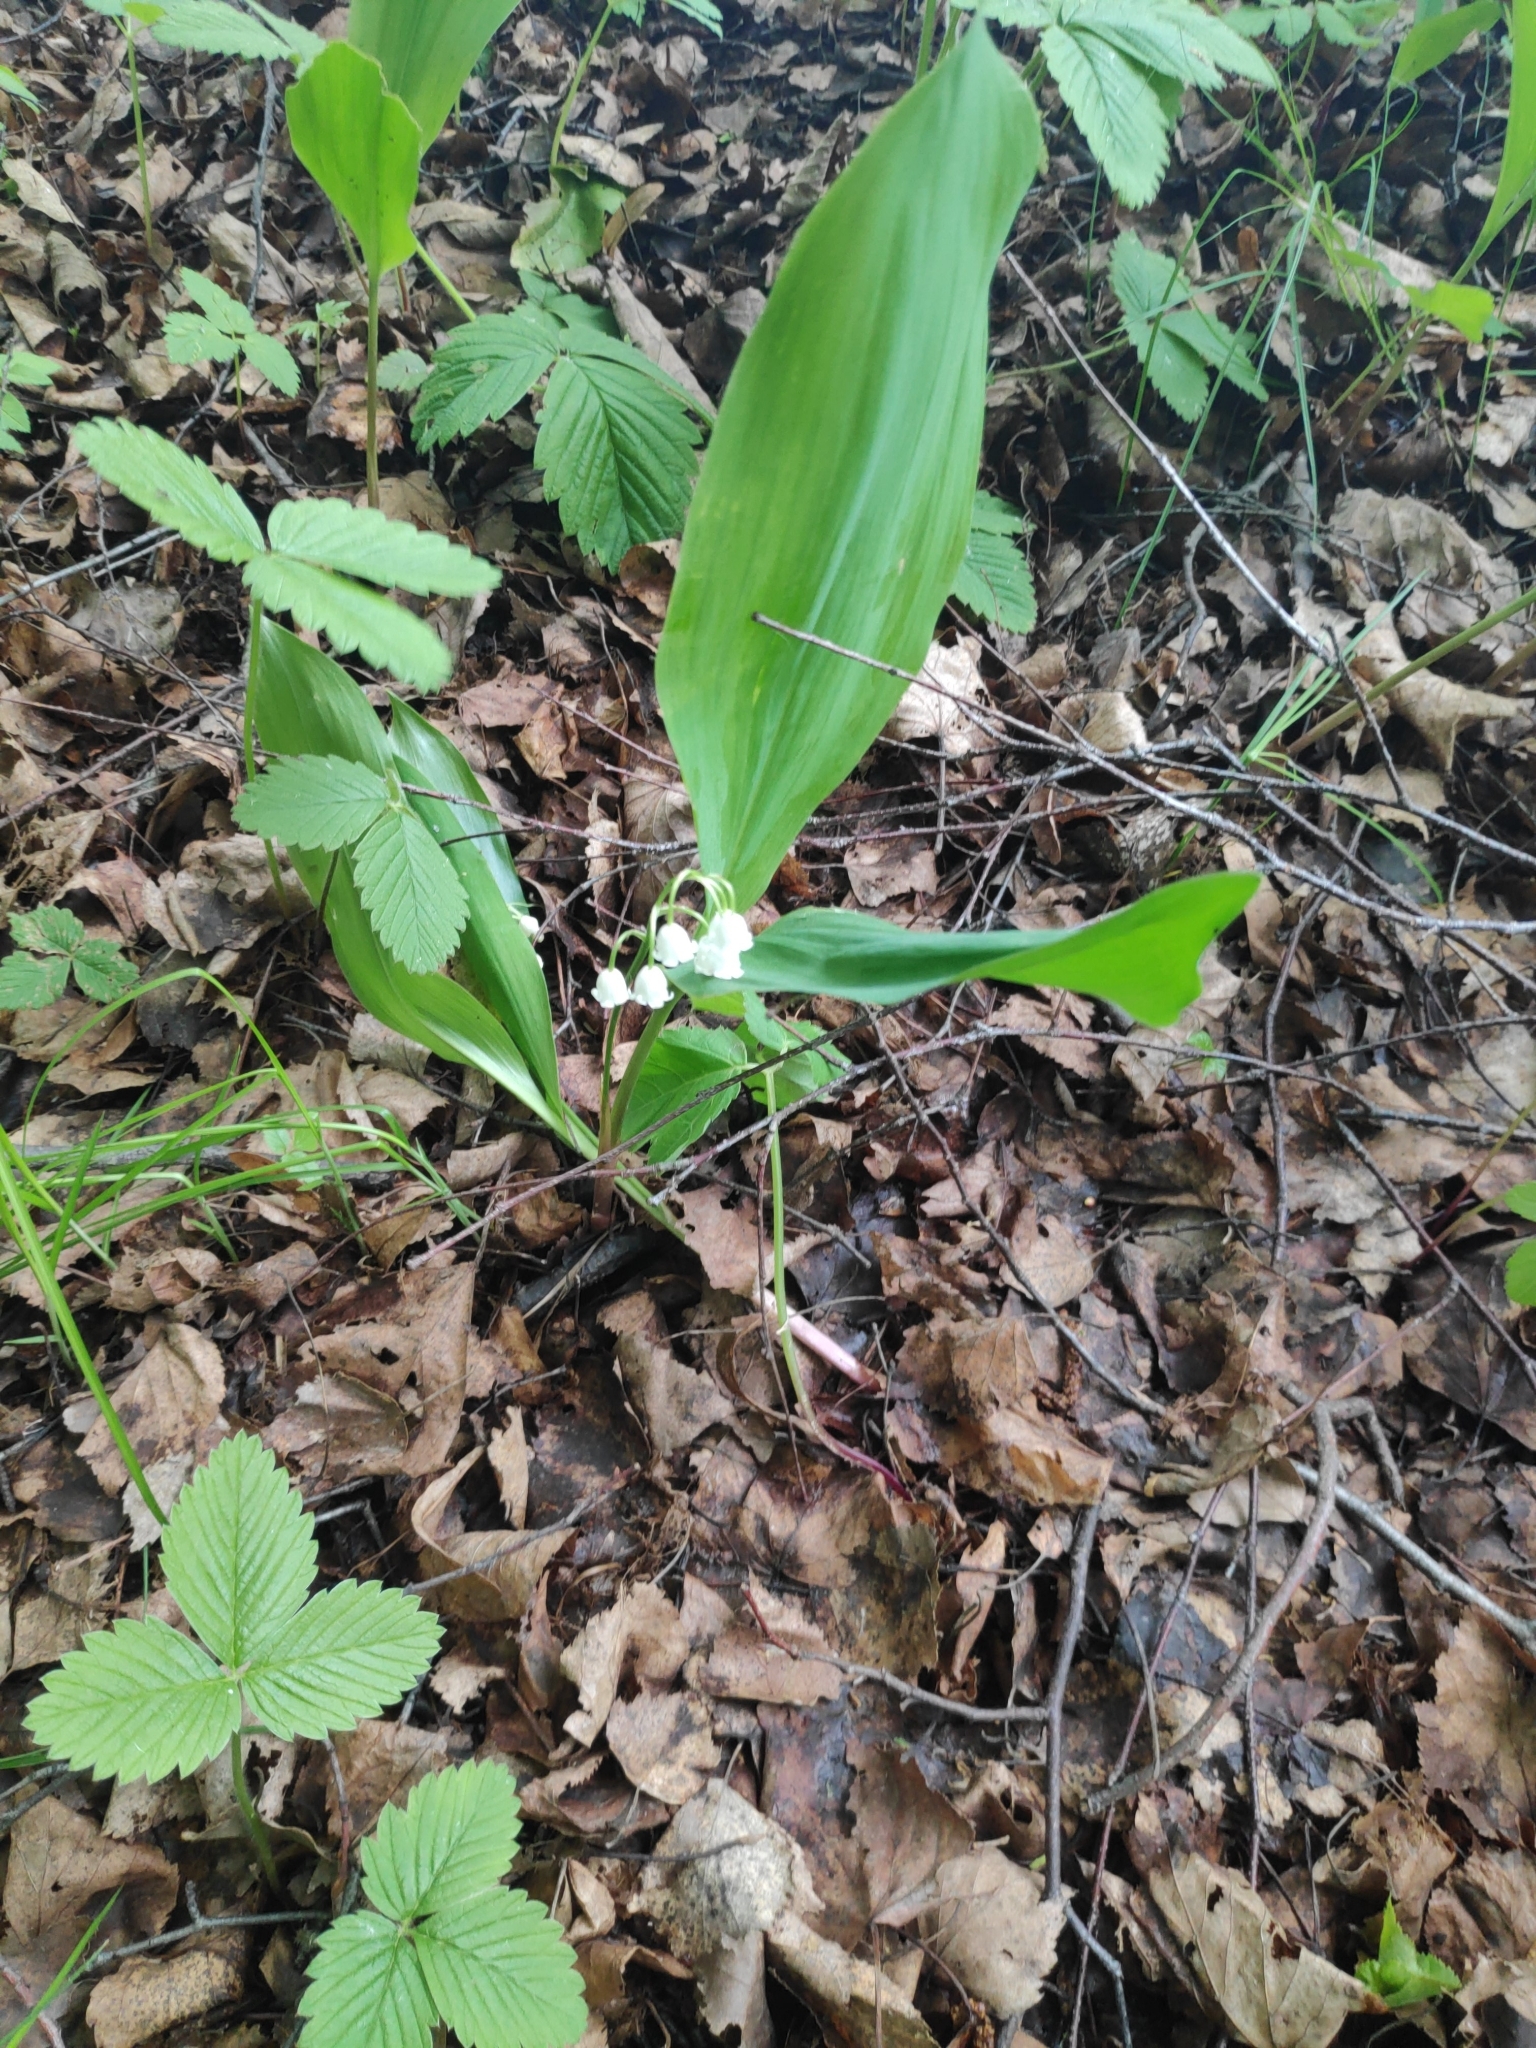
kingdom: Plantae
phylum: Tracheophyta
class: Liliopsida
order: Asparagales
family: Asparagaceae
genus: Convallaria
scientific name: Convallaria majalis
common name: Lily-of-the-valley
